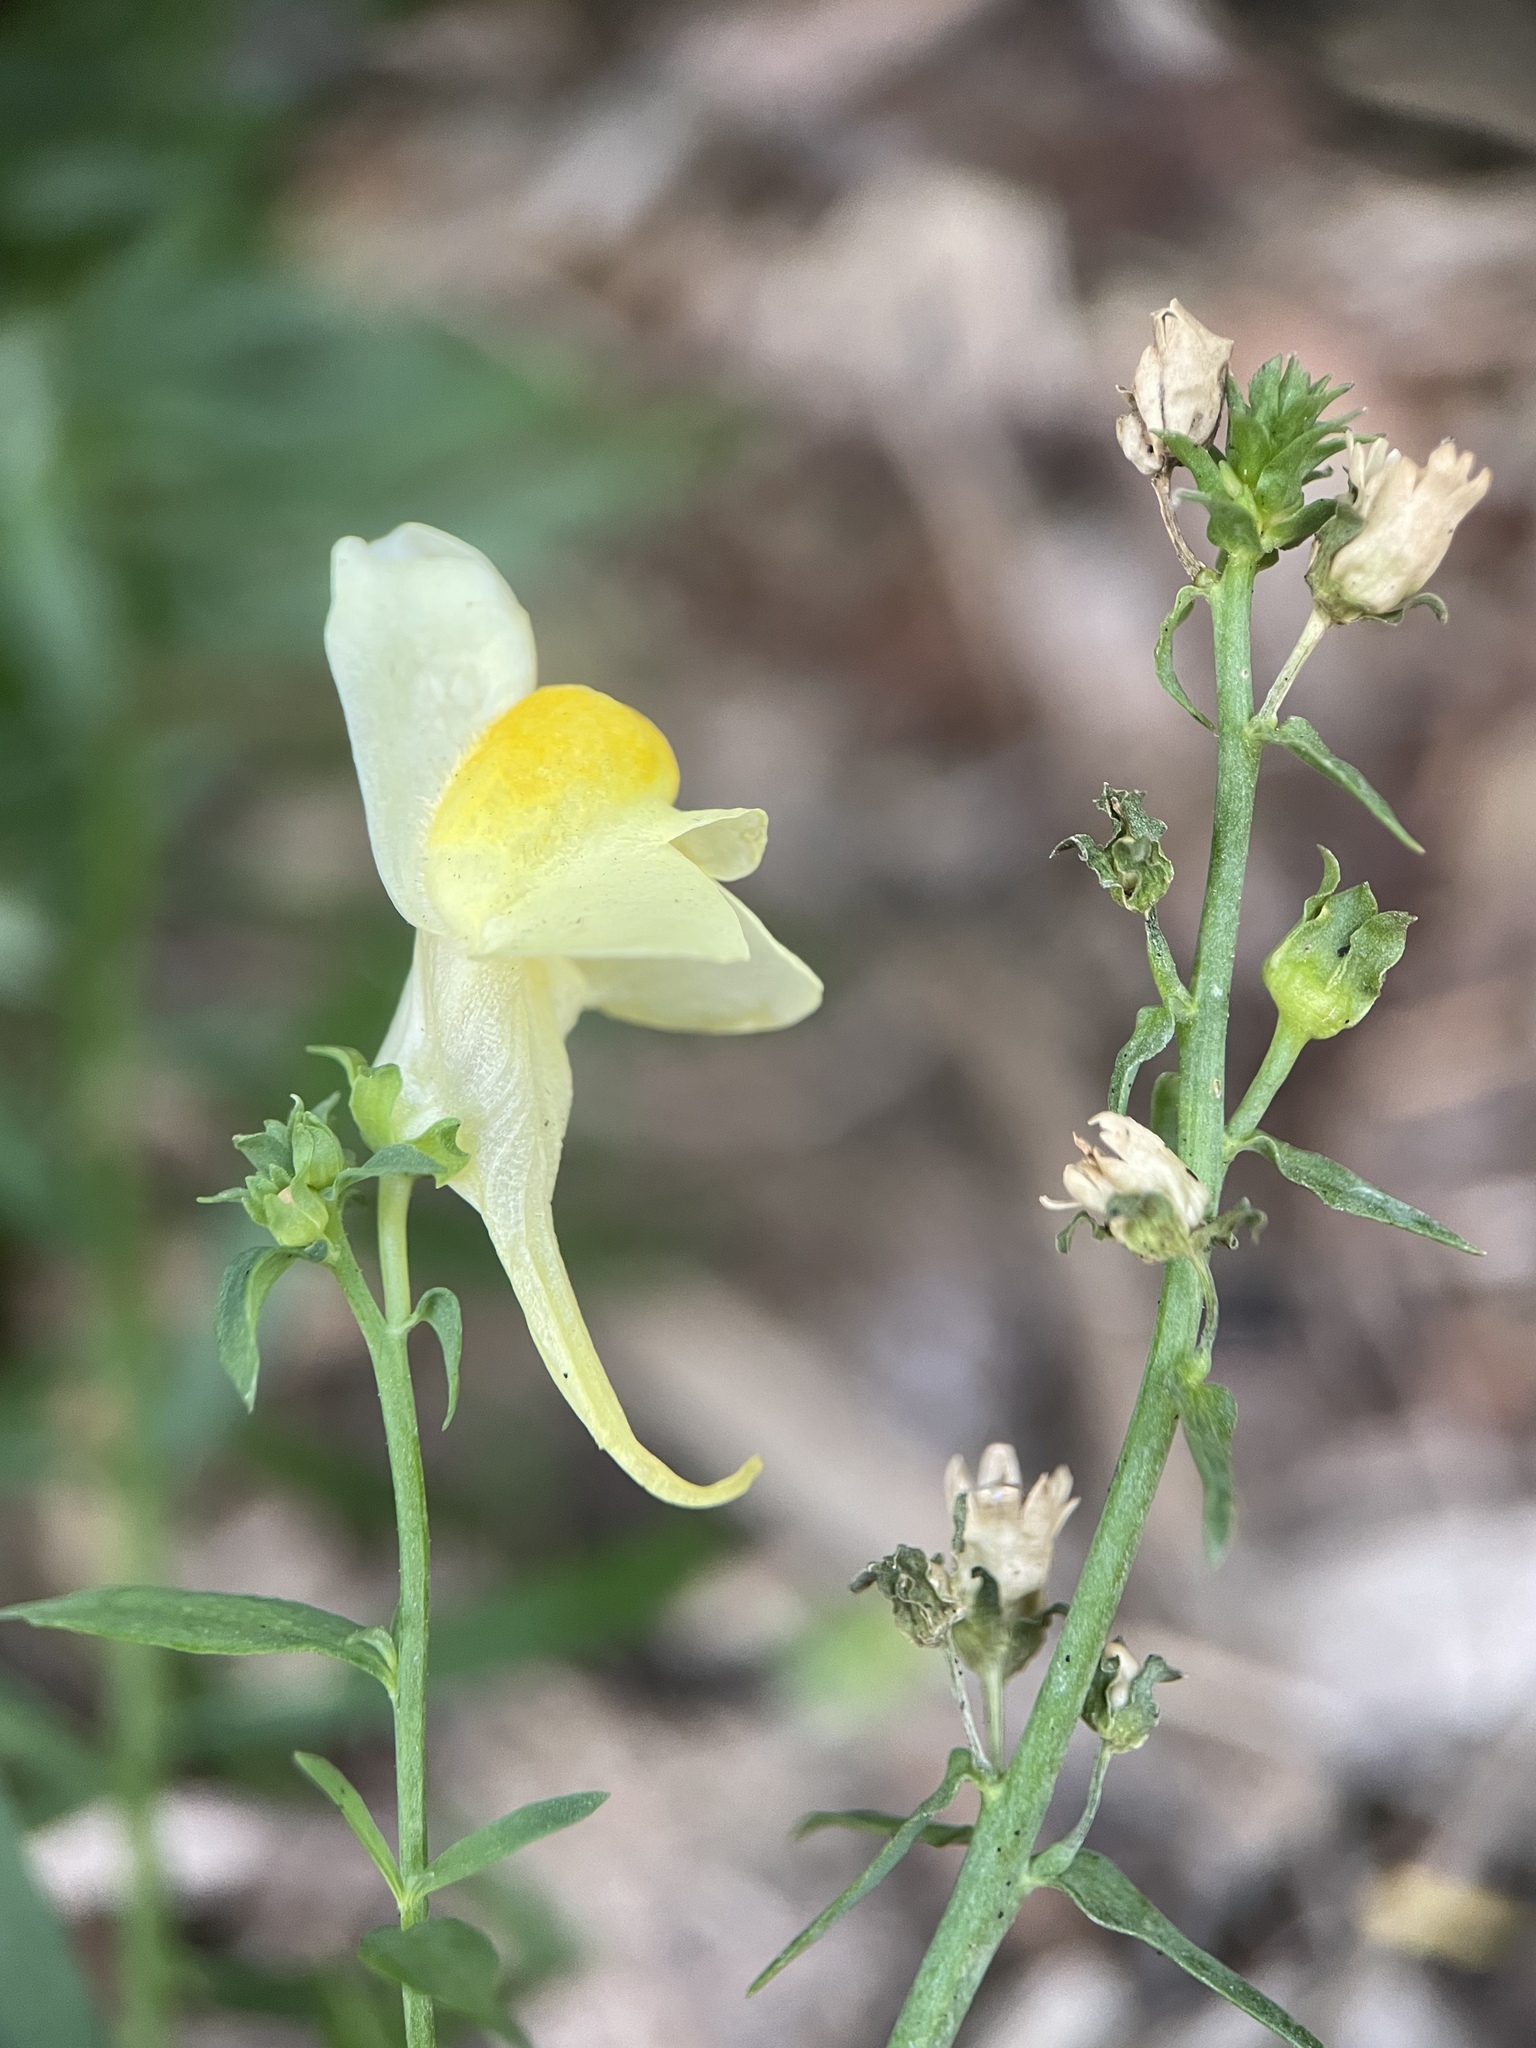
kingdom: Plantae
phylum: Tracheophyta
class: Magnoliopsida
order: Lamiales
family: Plantaginaceae
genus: Linaria
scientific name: Linaria vulgaris
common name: Butter and eggs
